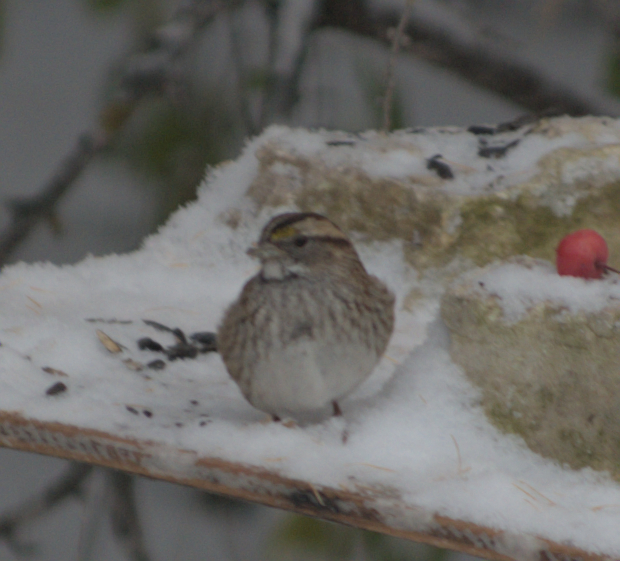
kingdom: Animalia
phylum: Chordata
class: Aves
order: Passeriformes
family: Passerellidae
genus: Zonotrichia
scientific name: Zonotrichia albicollis
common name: White-throated sparrow
